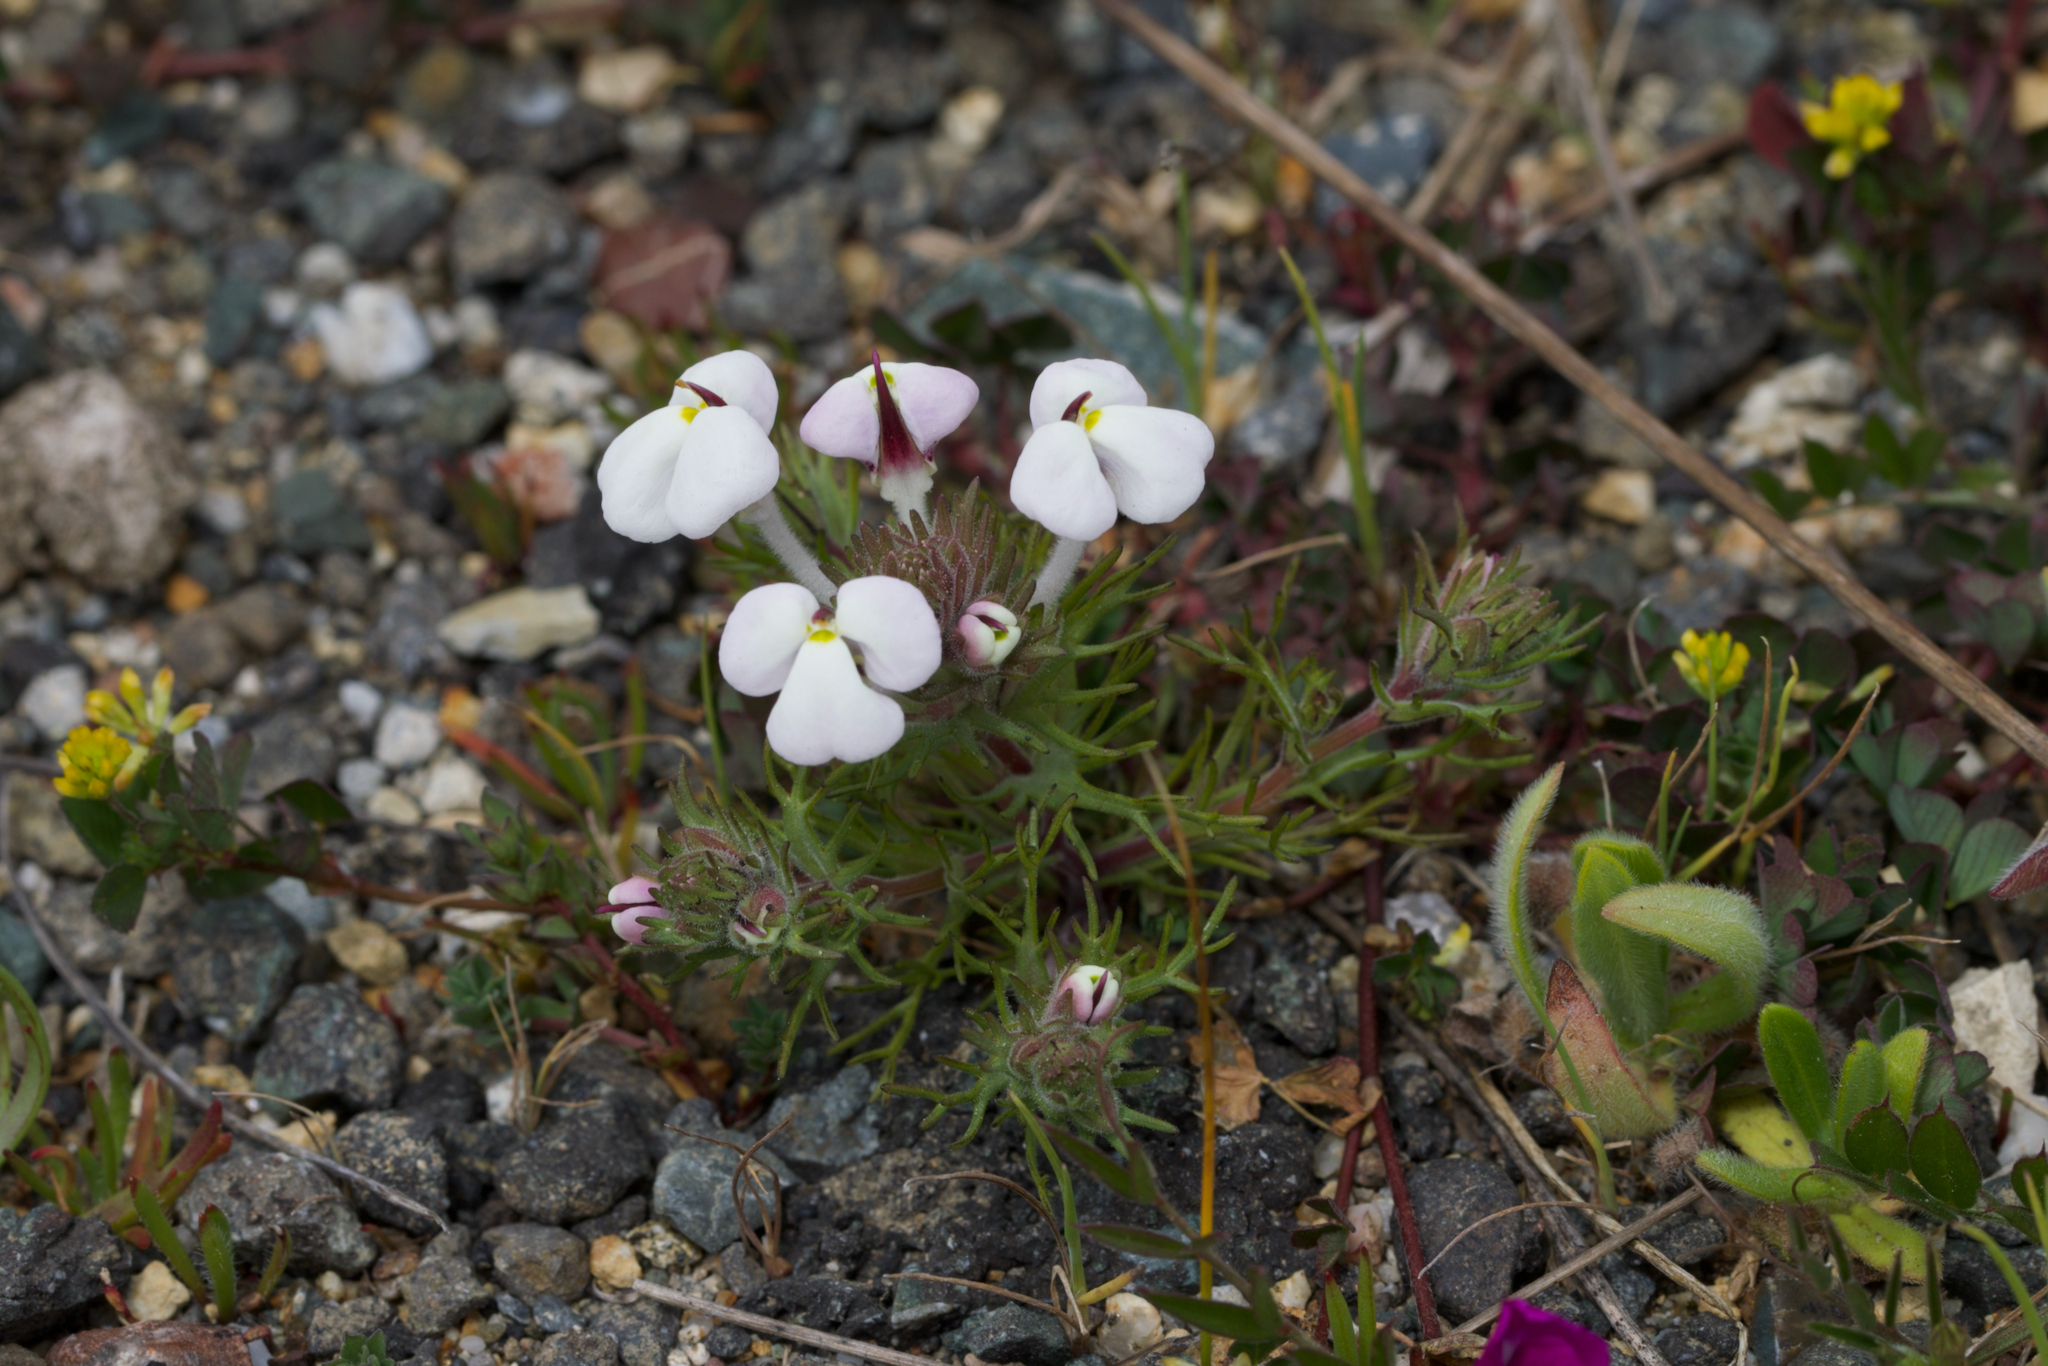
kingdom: Plantae
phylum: Tracheophyta
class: Magnoliopsida
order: Lamiales
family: Orobanchaceae
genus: Triphysaria
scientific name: Triphysaria eriantha
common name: Johnny-tuck
